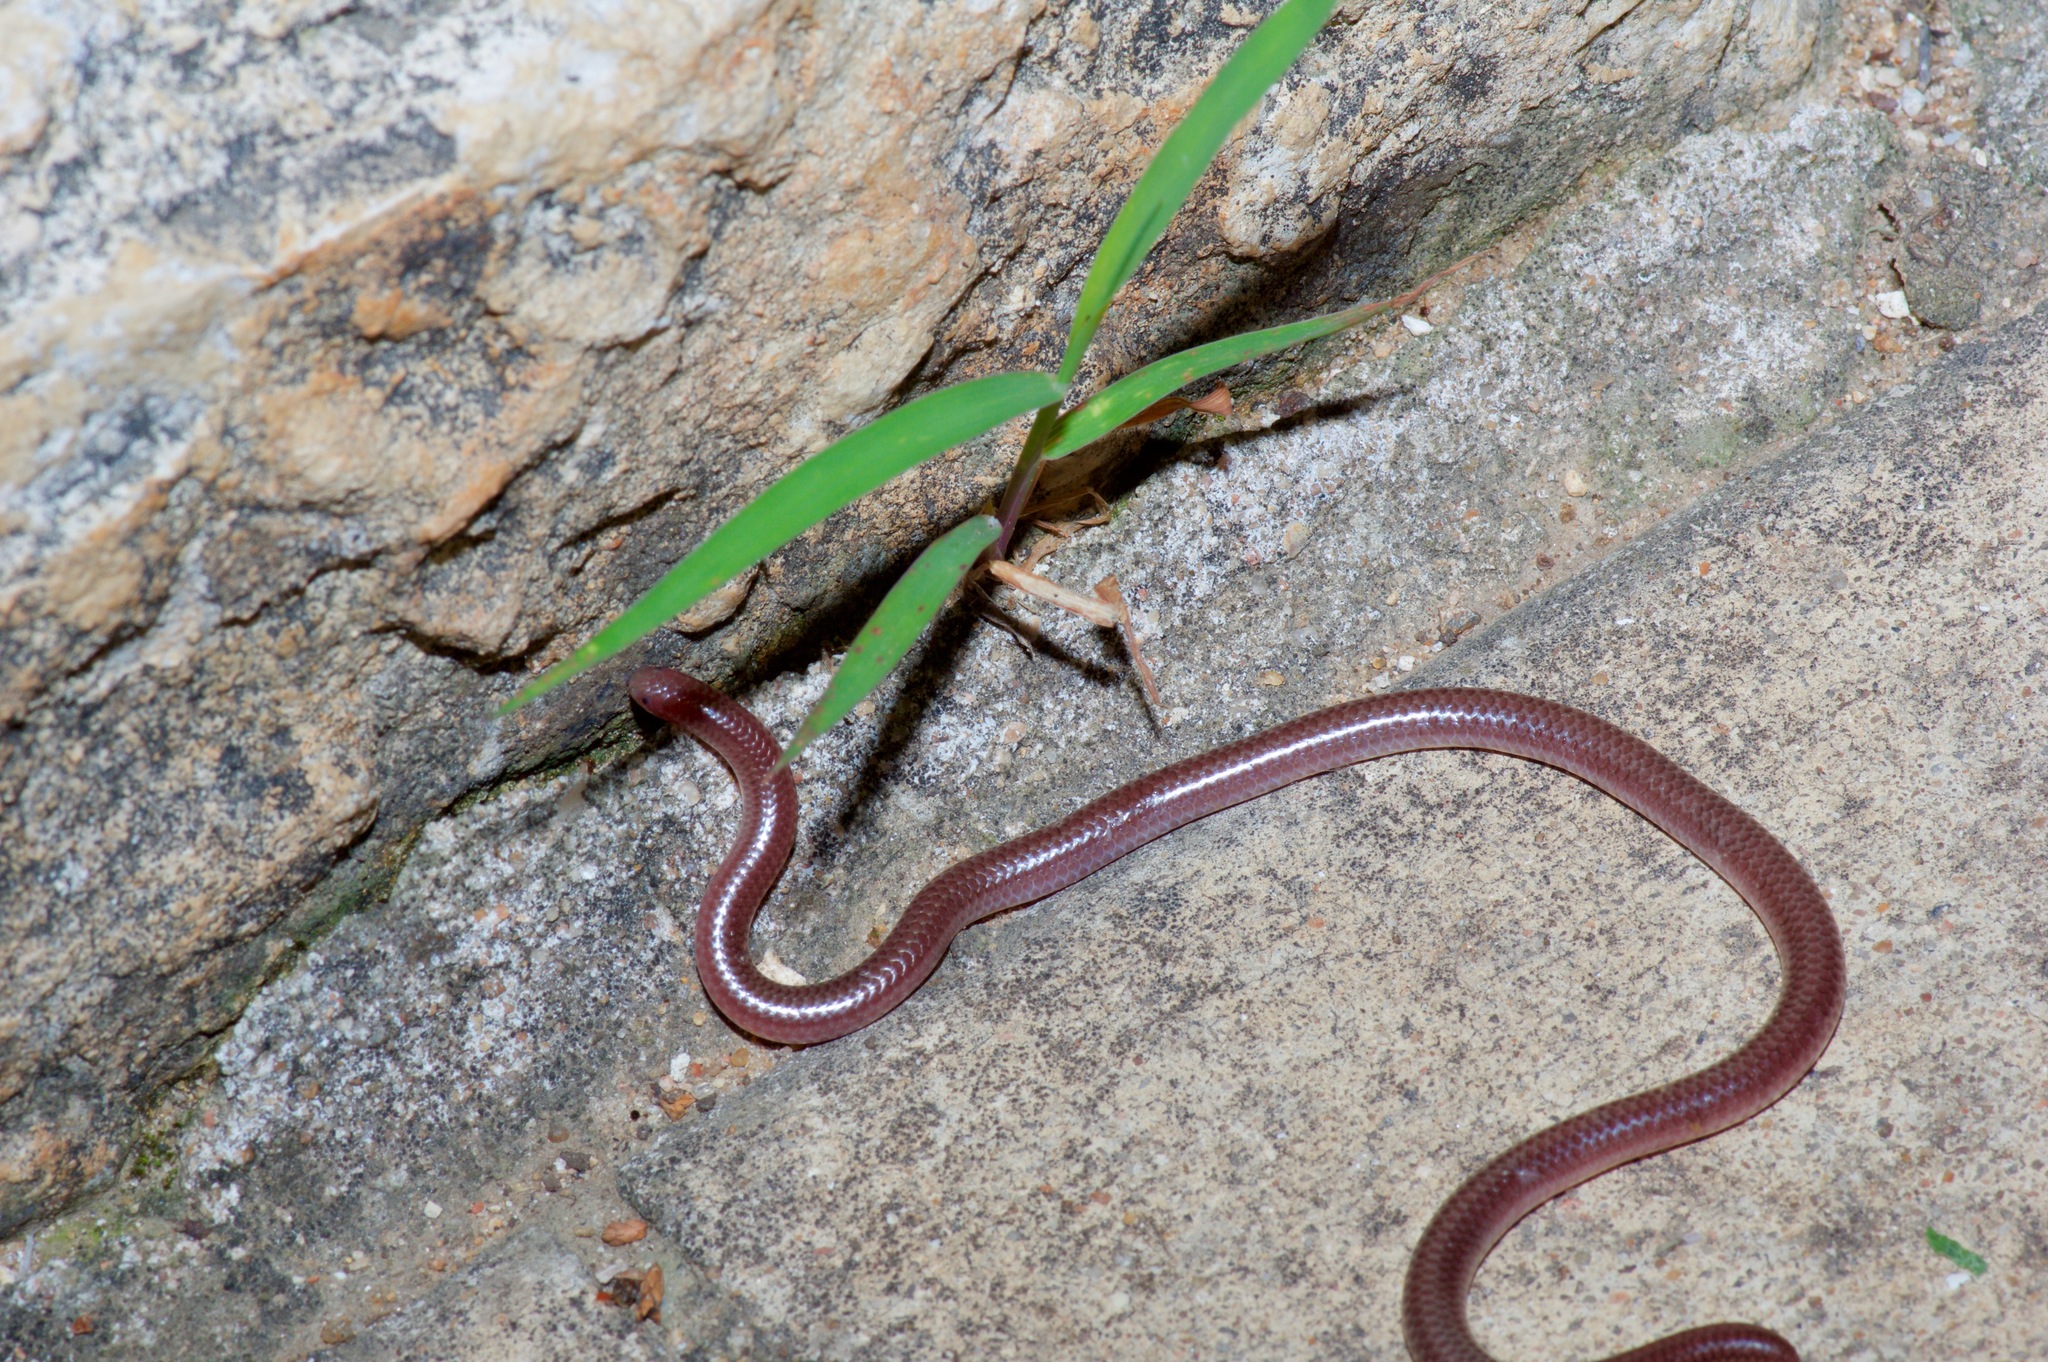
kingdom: Animalia
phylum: Chordata
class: Squamata
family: Leptotyphlopidae
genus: Rena
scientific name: Rena dulcis
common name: Texas blind snake
